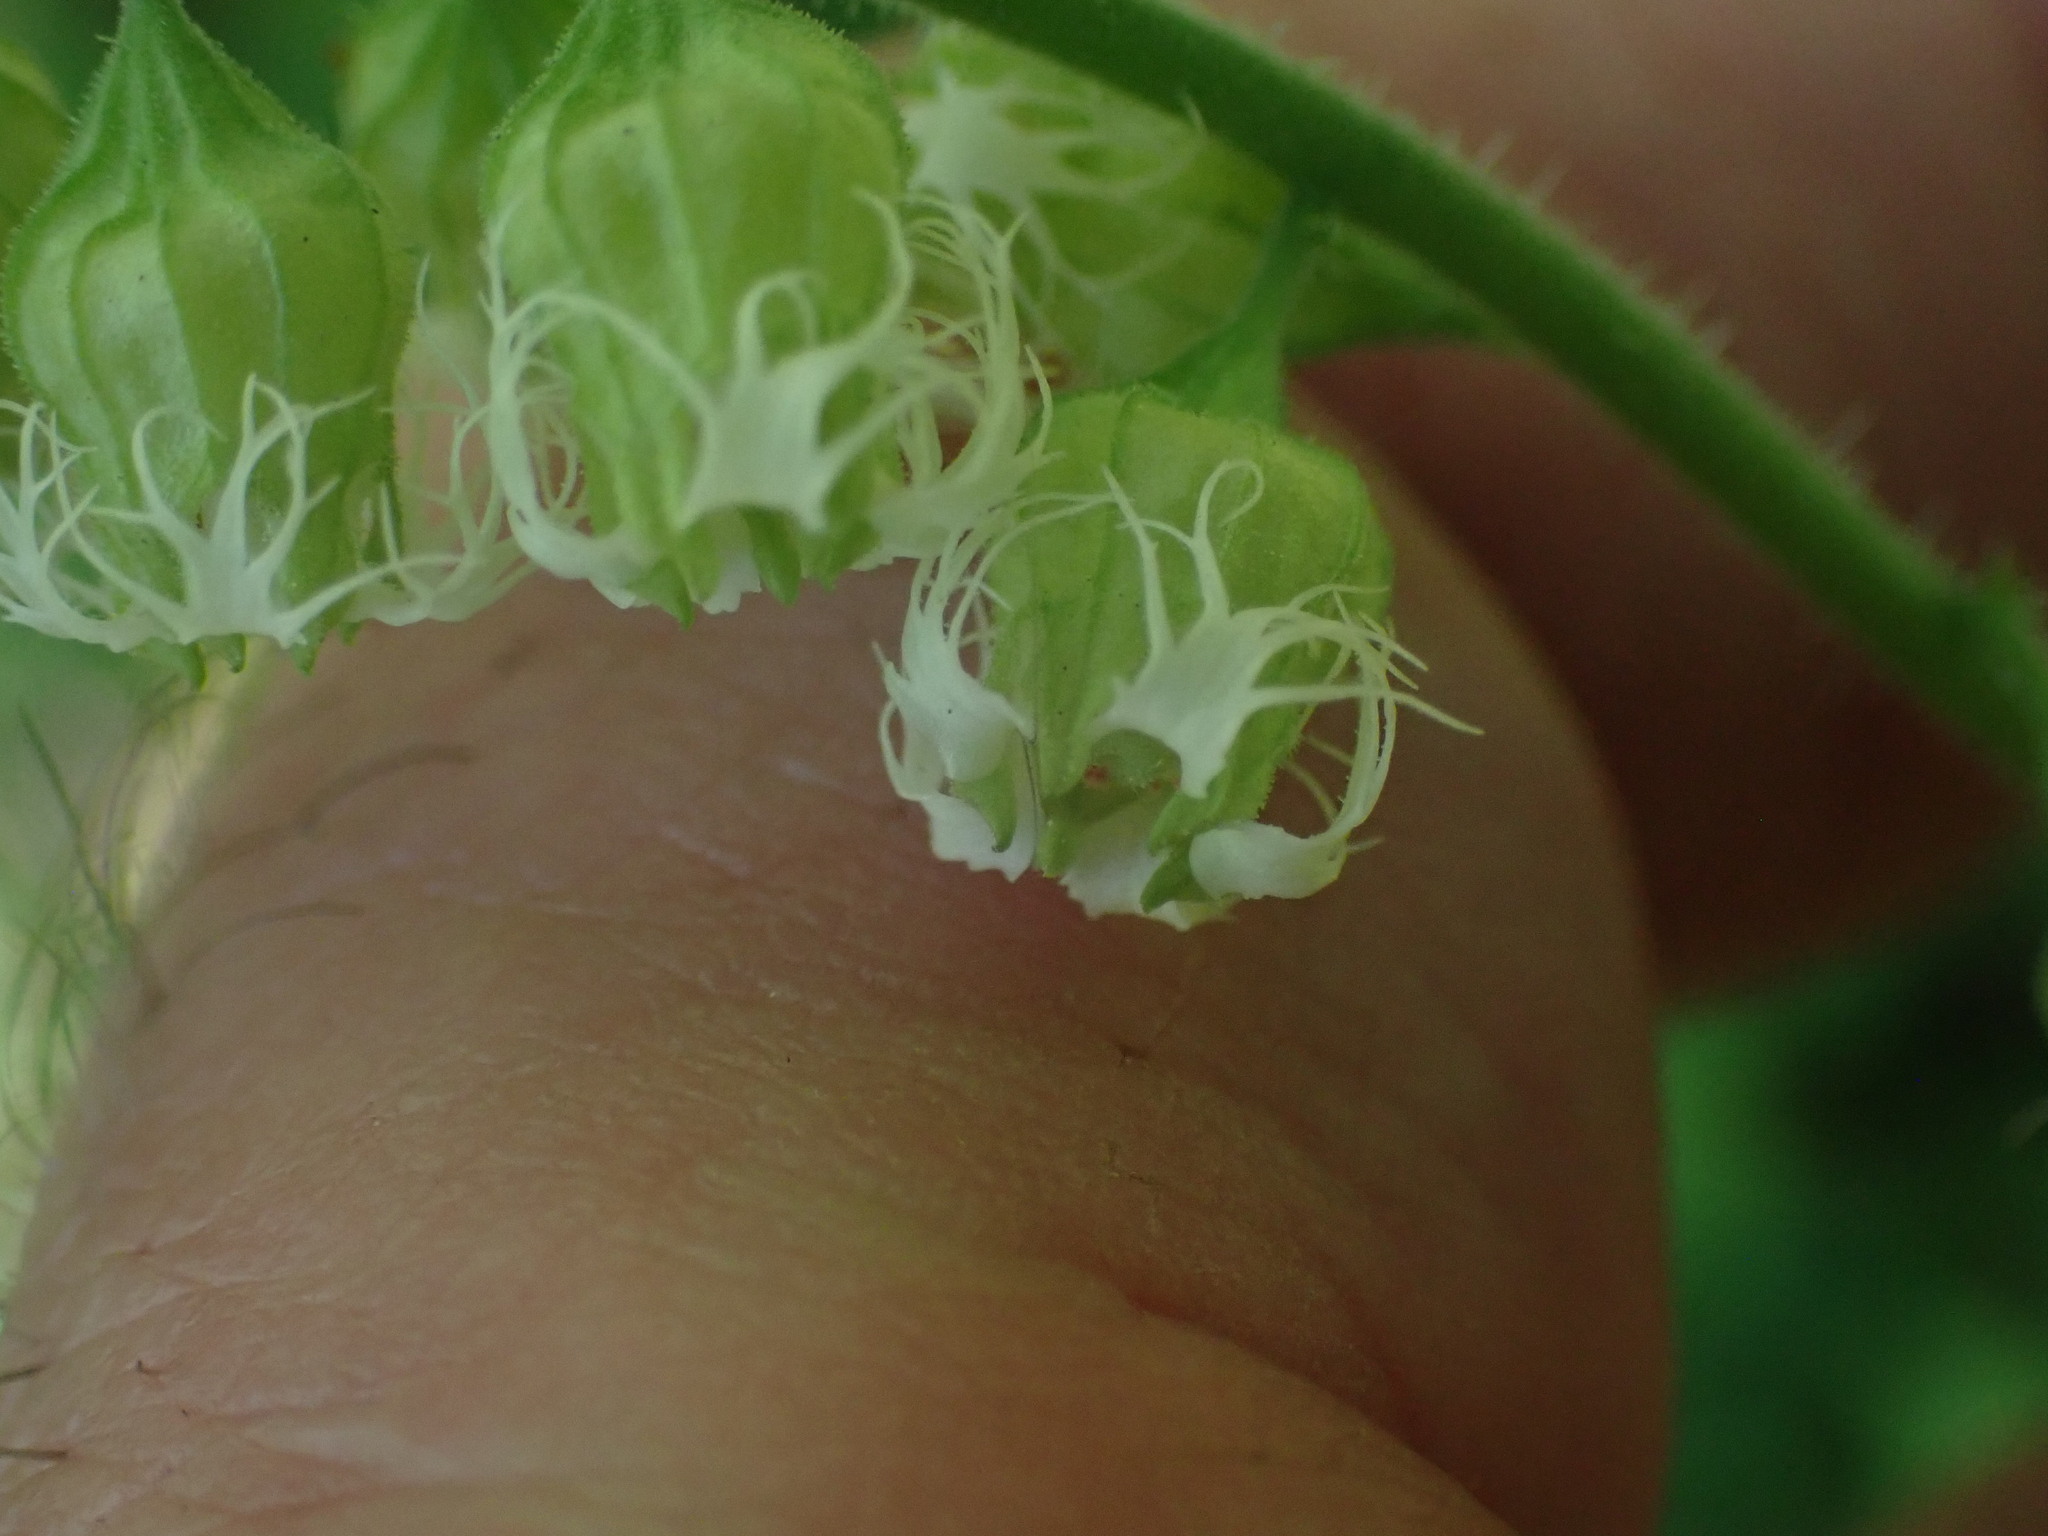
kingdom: Plantae
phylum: Tracheophyta
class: Magnoliopsida
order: Saxifragales
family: Saxifragaceae
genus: Tellima
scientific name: Tellima grandiflora
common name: Fringecups
